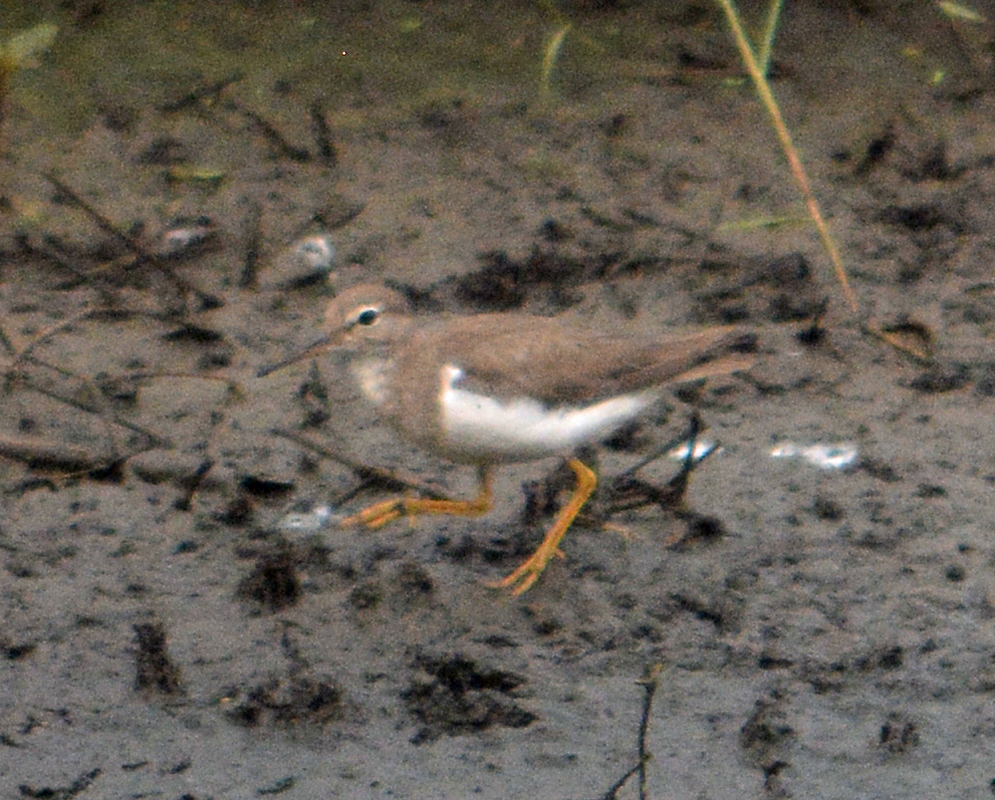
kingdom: Animalia
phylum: Chordata
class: Aves
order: Charadriiformes
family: Scolopacidae
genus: Actitis
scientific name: Actitis macularius
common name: Spotted sandpiper
